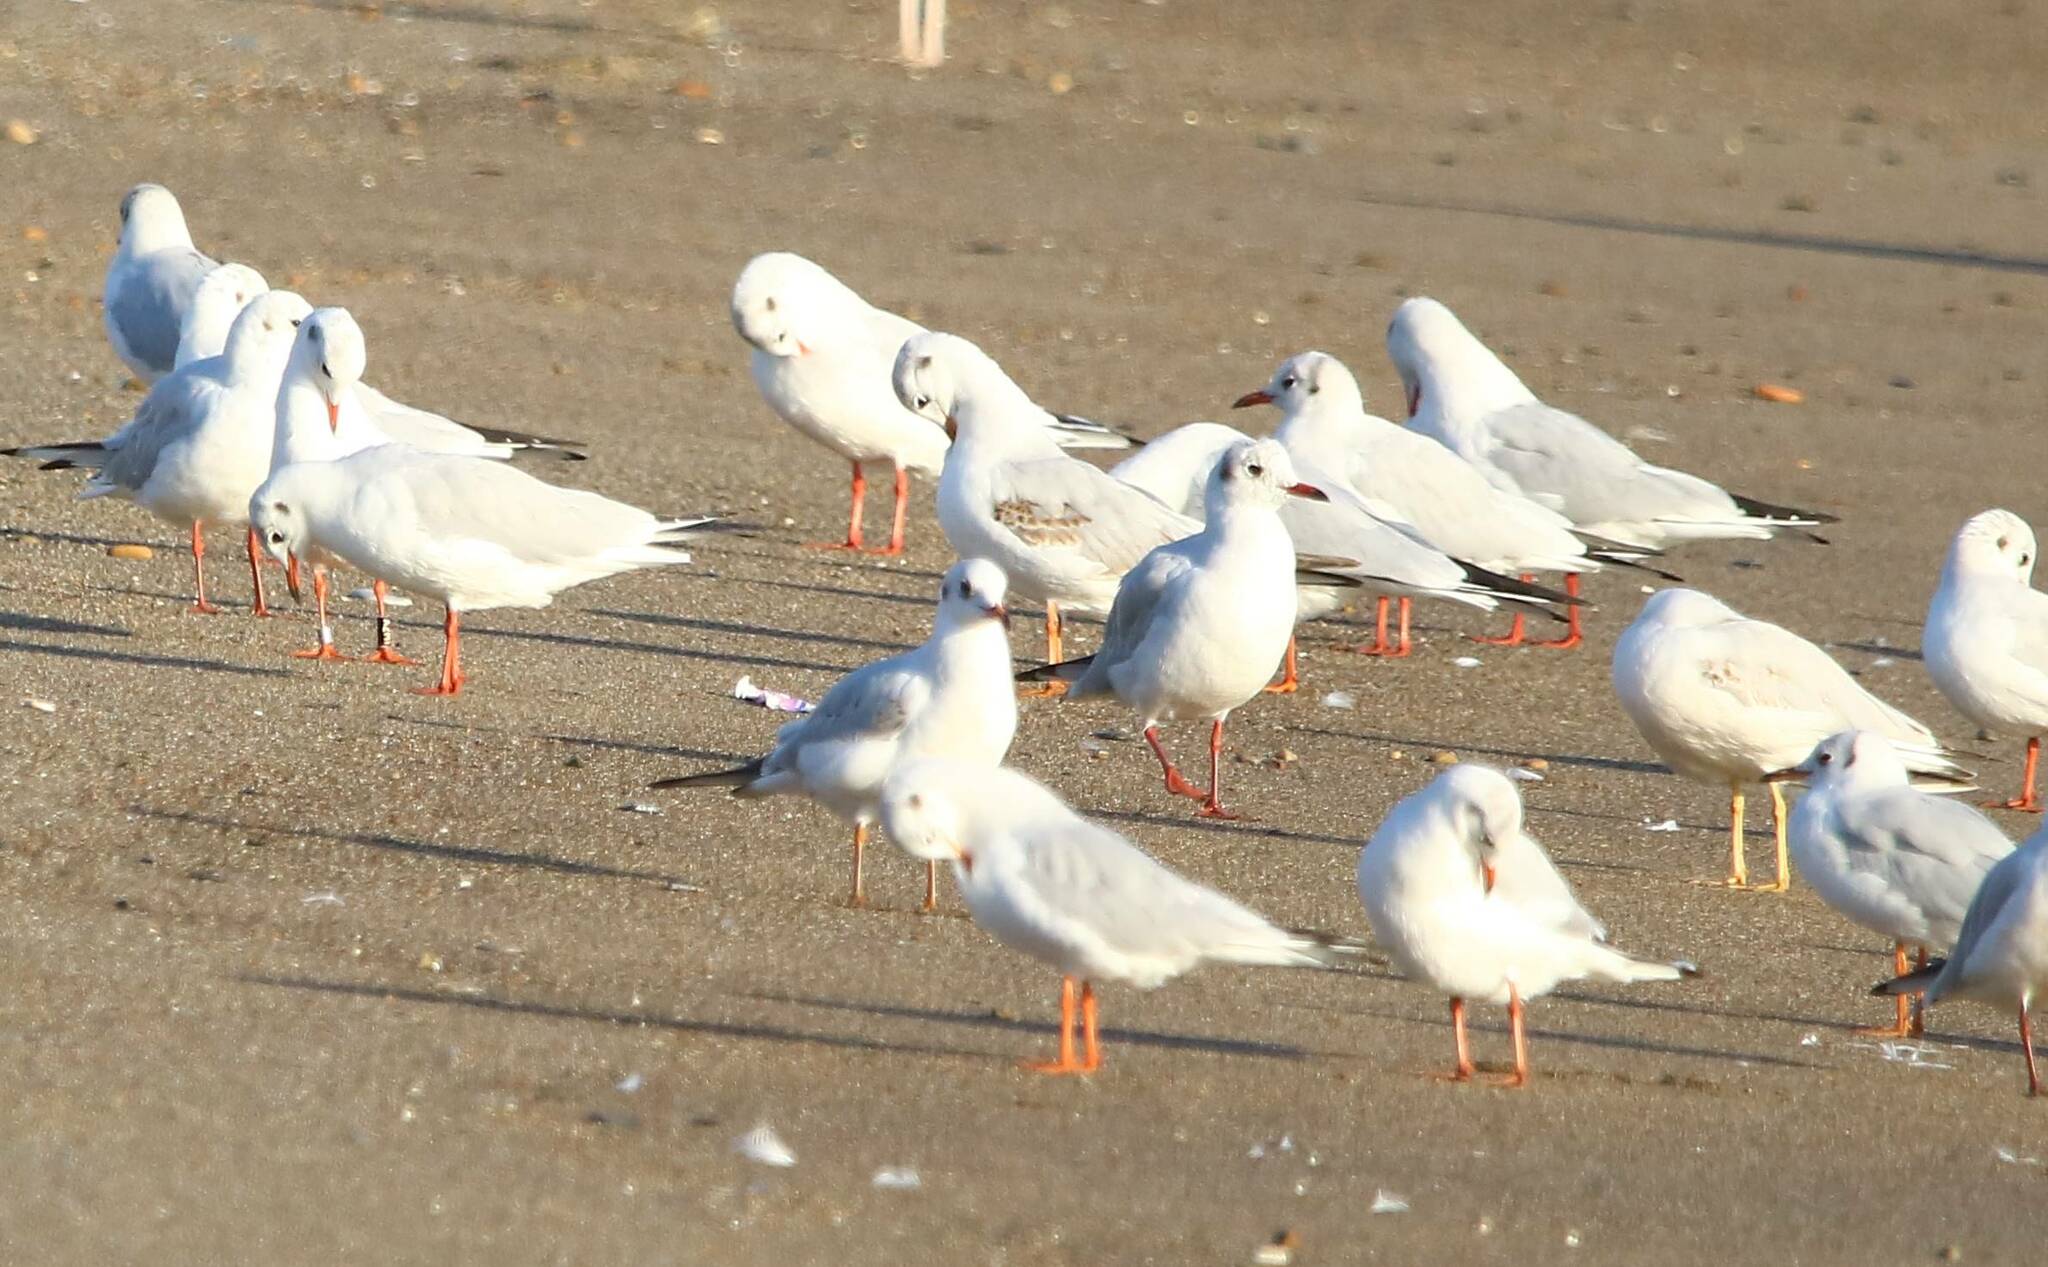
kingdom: Animalia
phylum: Chordata
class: Aves
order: Charadriiformes
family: Laridae
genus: Chroicocephalus
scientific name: Chroicocephalus ridibundus
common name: Black-headed gull
